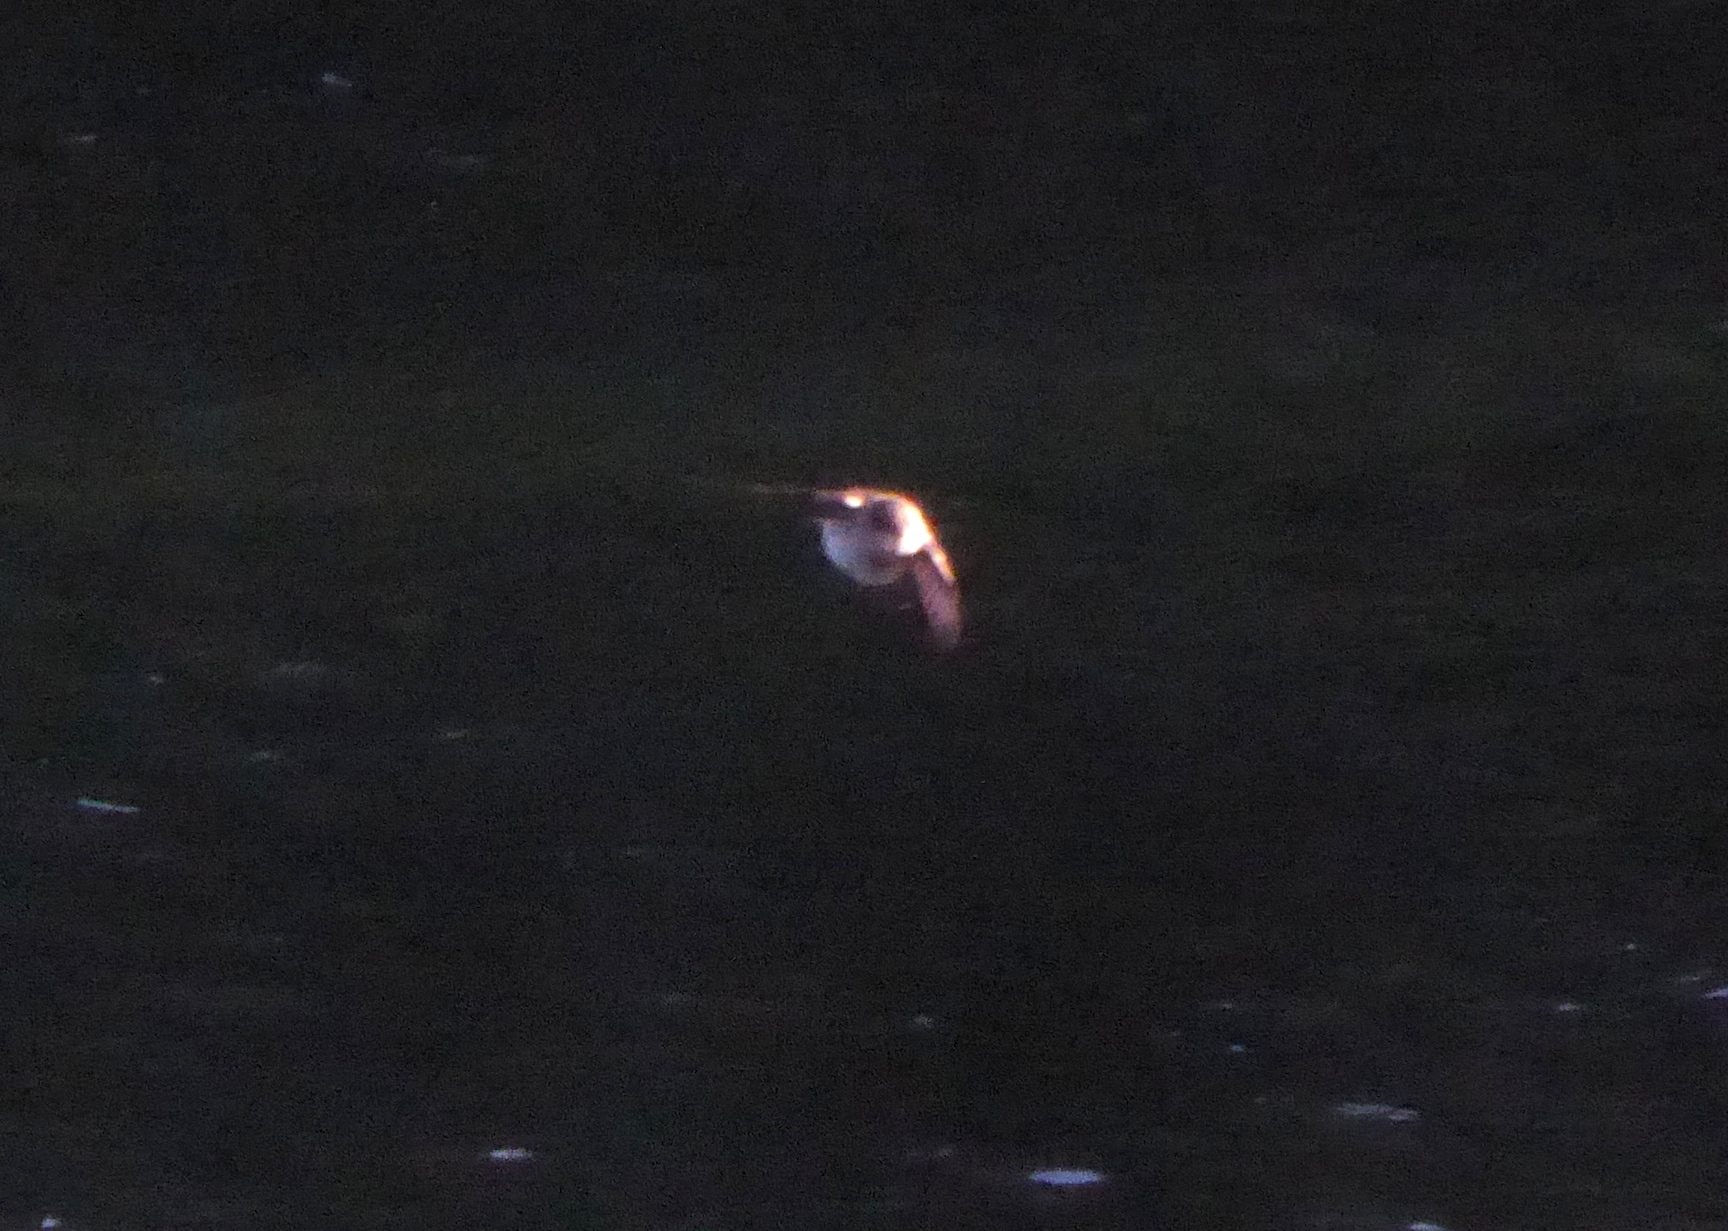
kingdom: Animalia
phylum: Chordata
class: Aves
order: Passeriformes
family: Hirundinidae
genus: Stelgidopteryx
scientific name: Stelgidopteryx serripennis
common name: Northern rough-winged swallow
